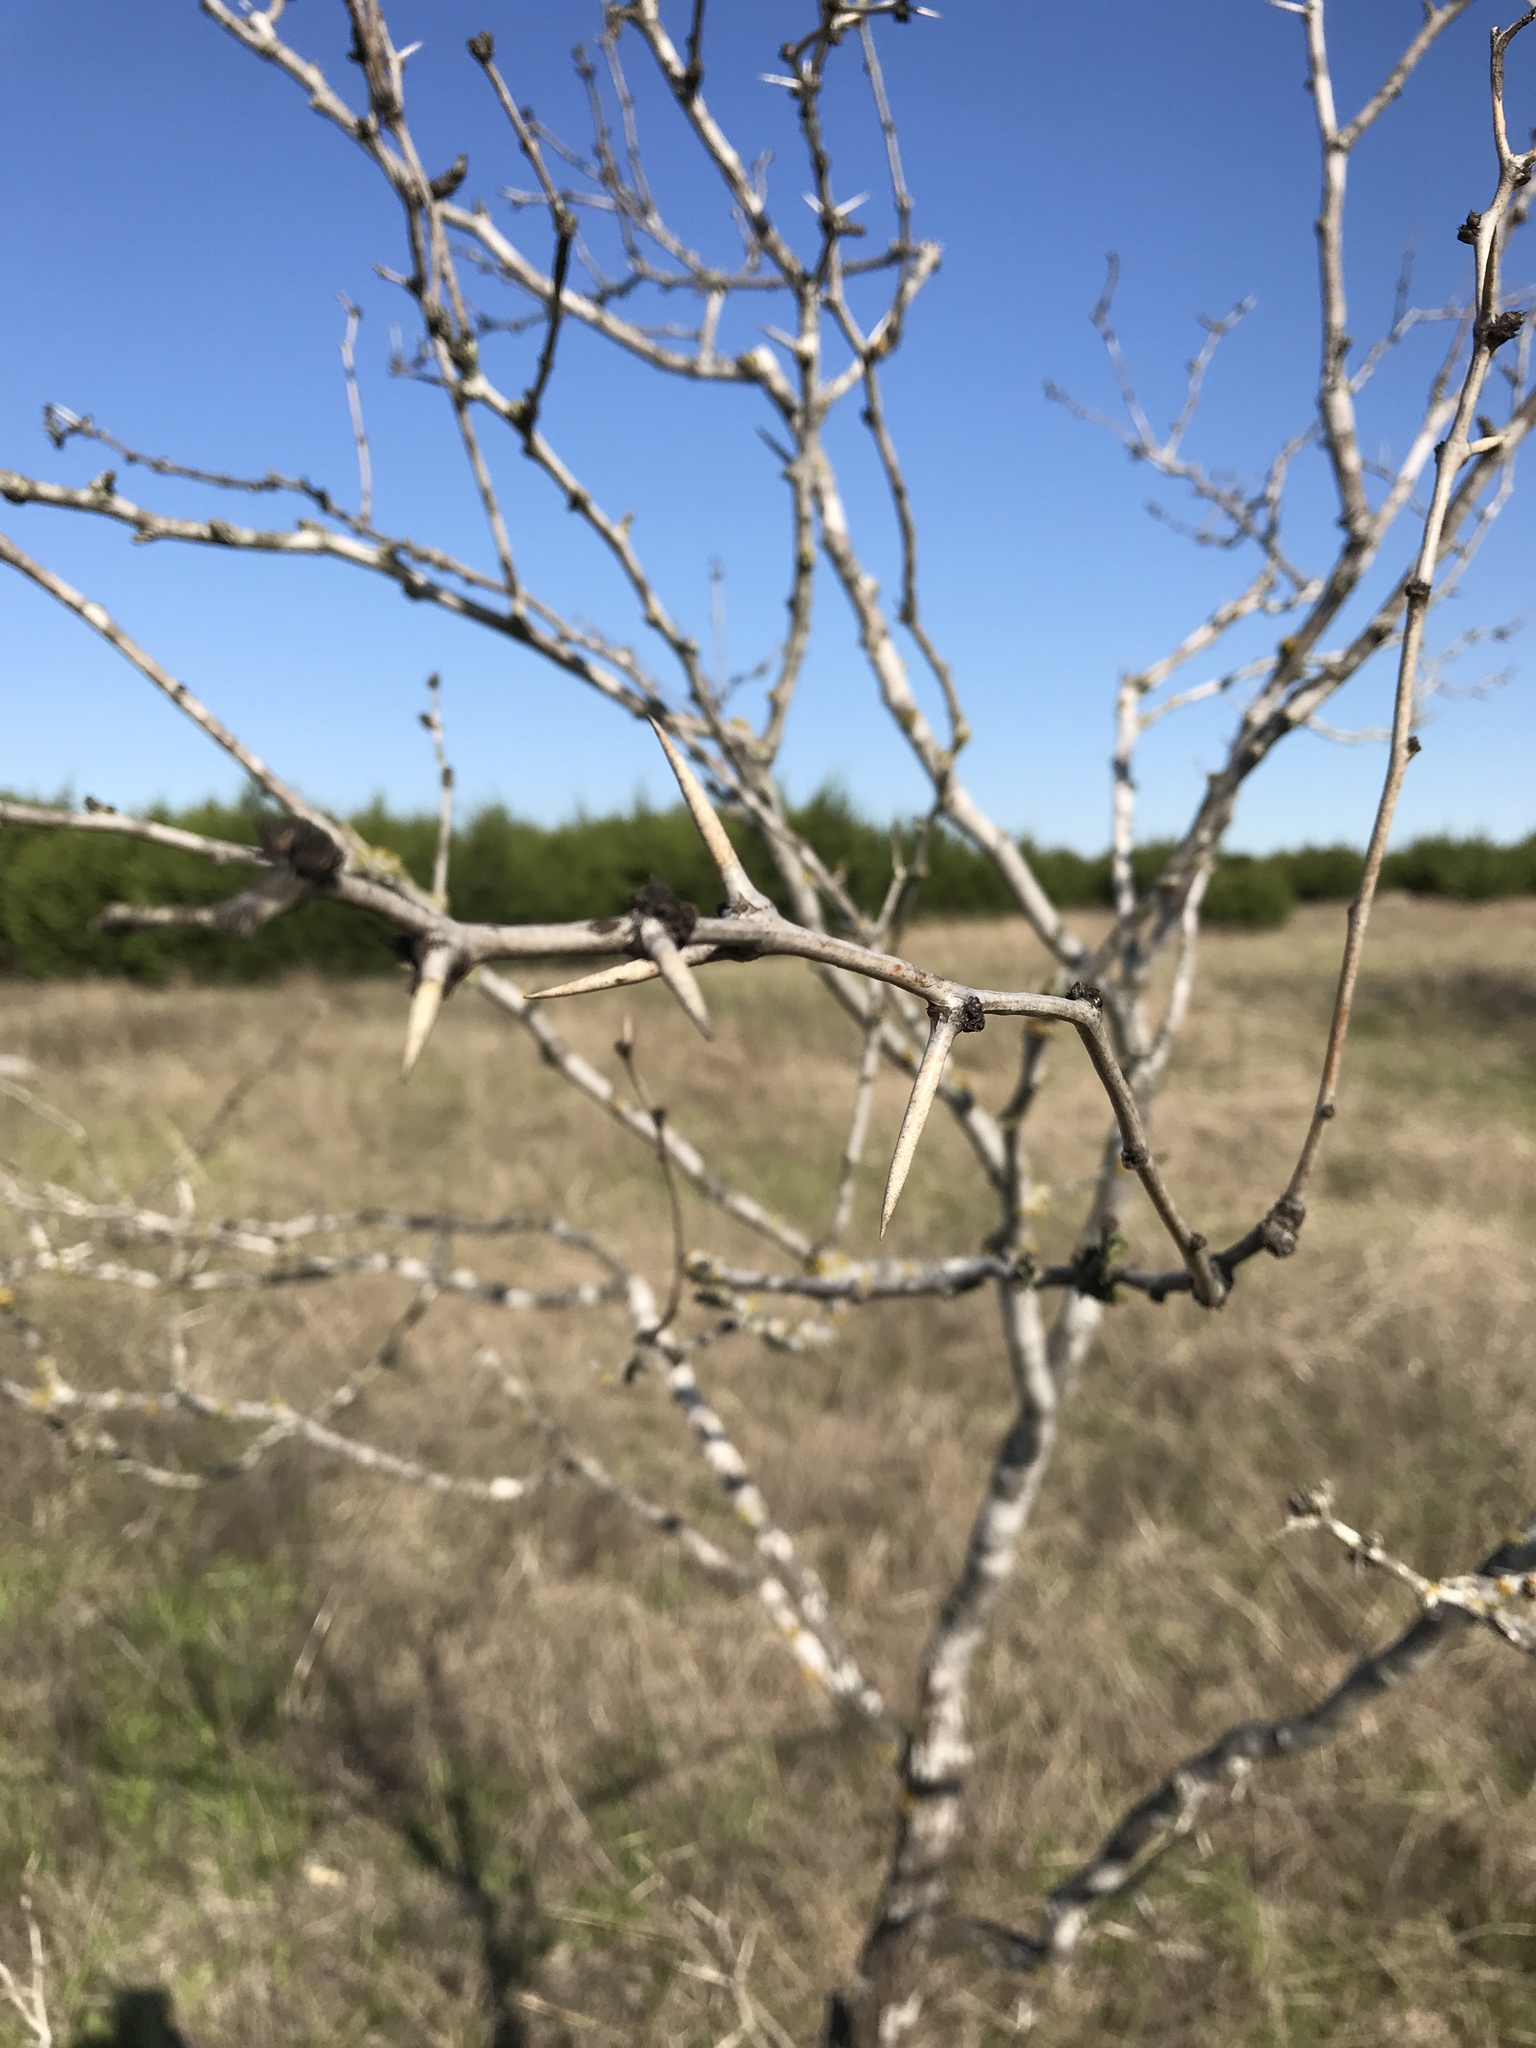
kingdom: Plantae
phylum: Tracheophyta
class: Magnoliopsida
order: Fabales
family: Fabaceae
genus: Prosopis
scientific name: Prosopis glandulosa
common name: Honey mesquite
